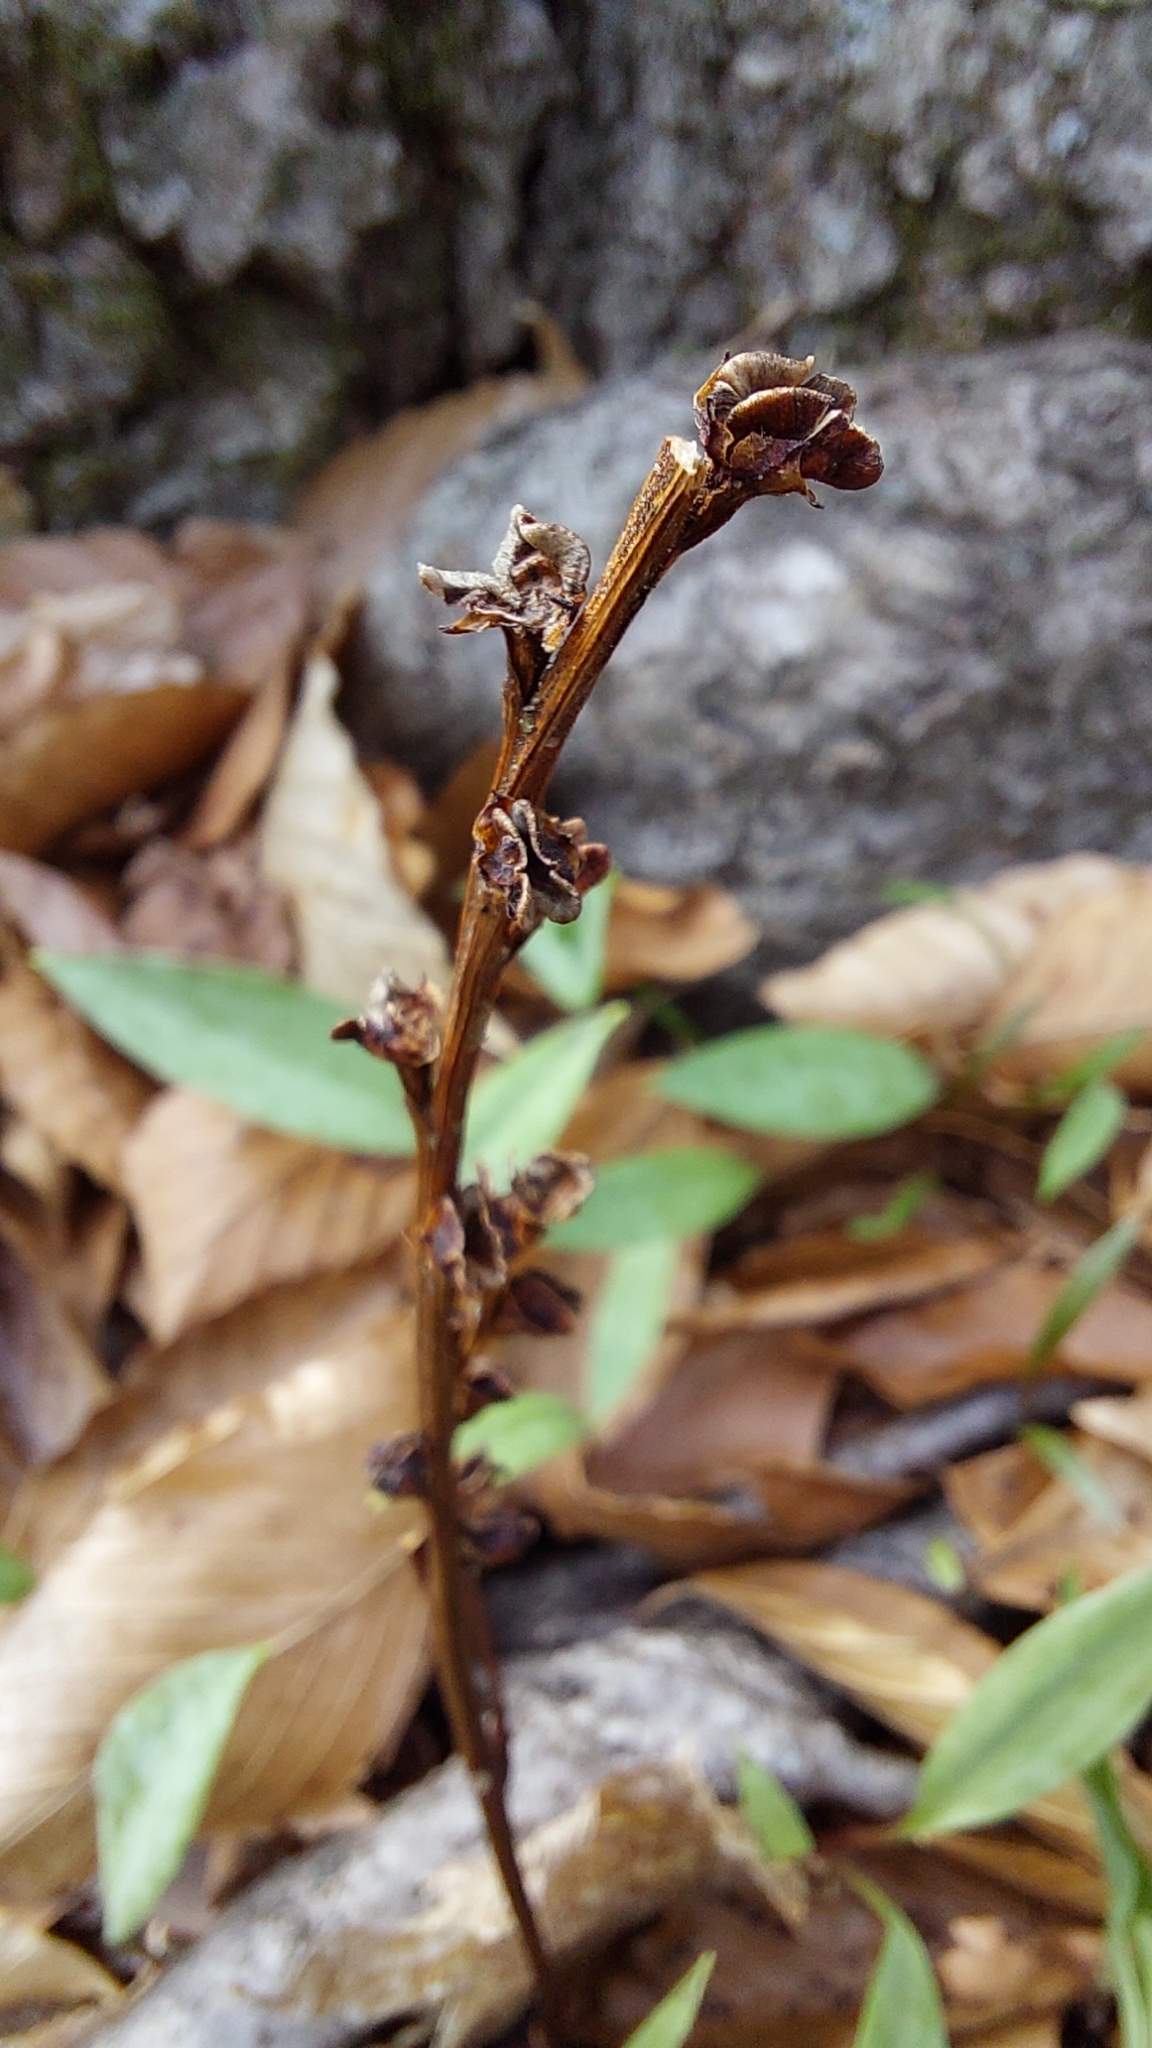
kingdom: Plantae
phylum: Tracheophyta
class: Magnoliopsida
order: Lamiales
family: Orobanchaceae
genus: Epifagus
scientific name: Epifagus virginiana
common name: Beechdrops
